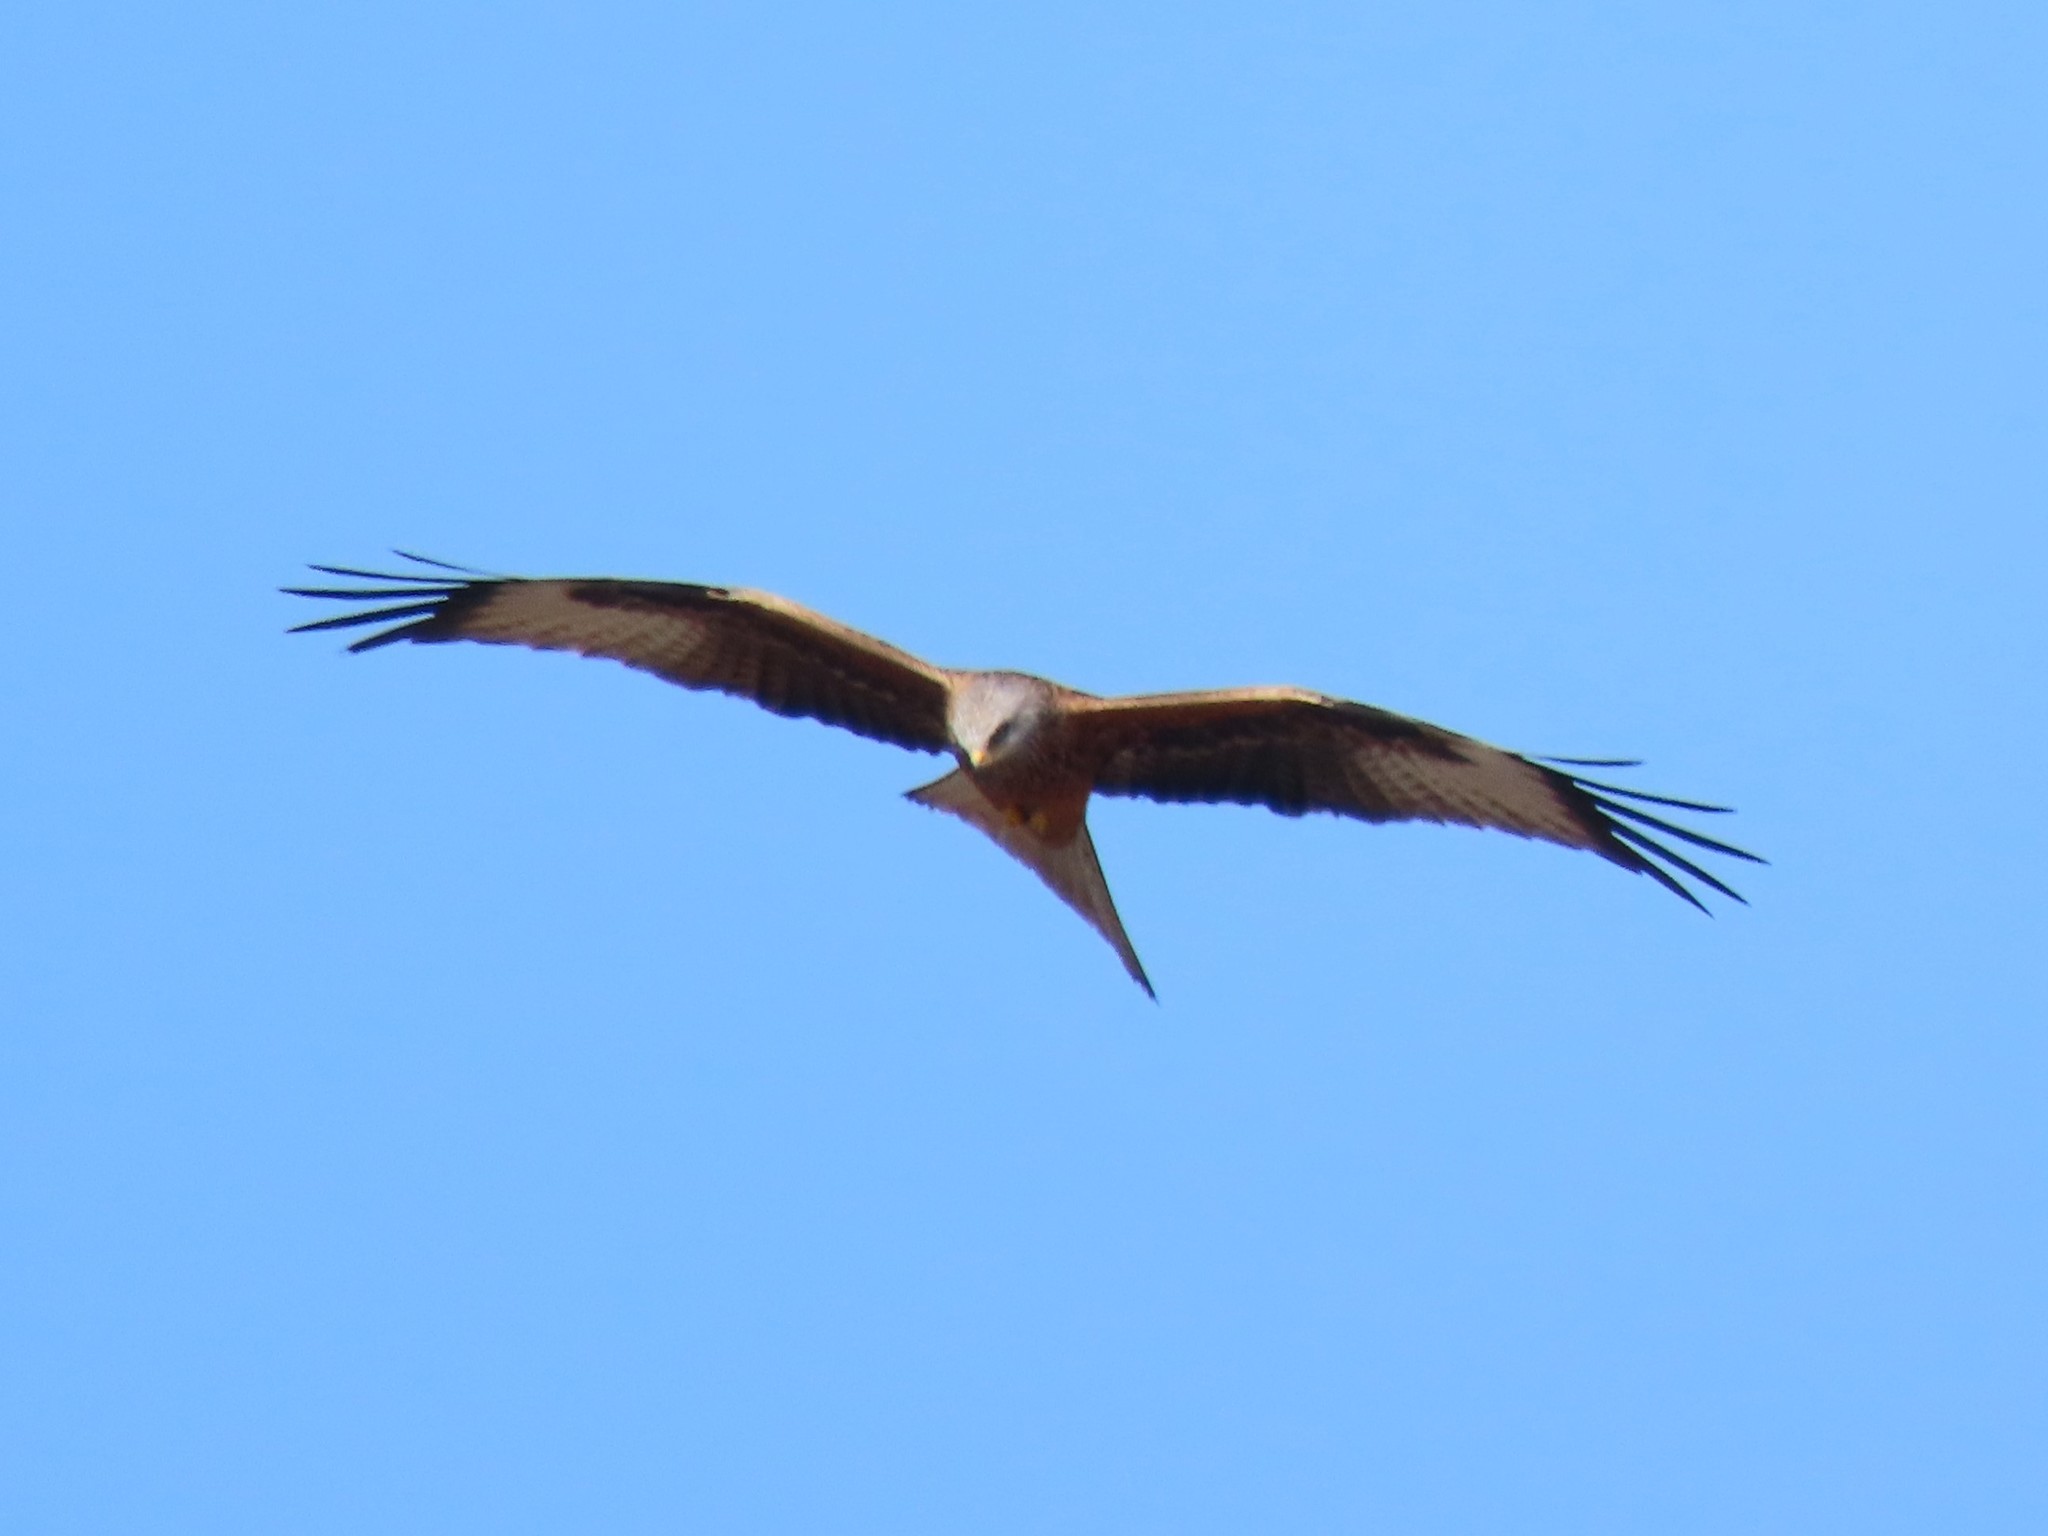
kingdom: Animalia
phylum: Chordata
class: Aves
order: Accipitriformes
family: Accipitridae
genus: Milvus
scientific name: Milvus milvus
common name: Red kite
